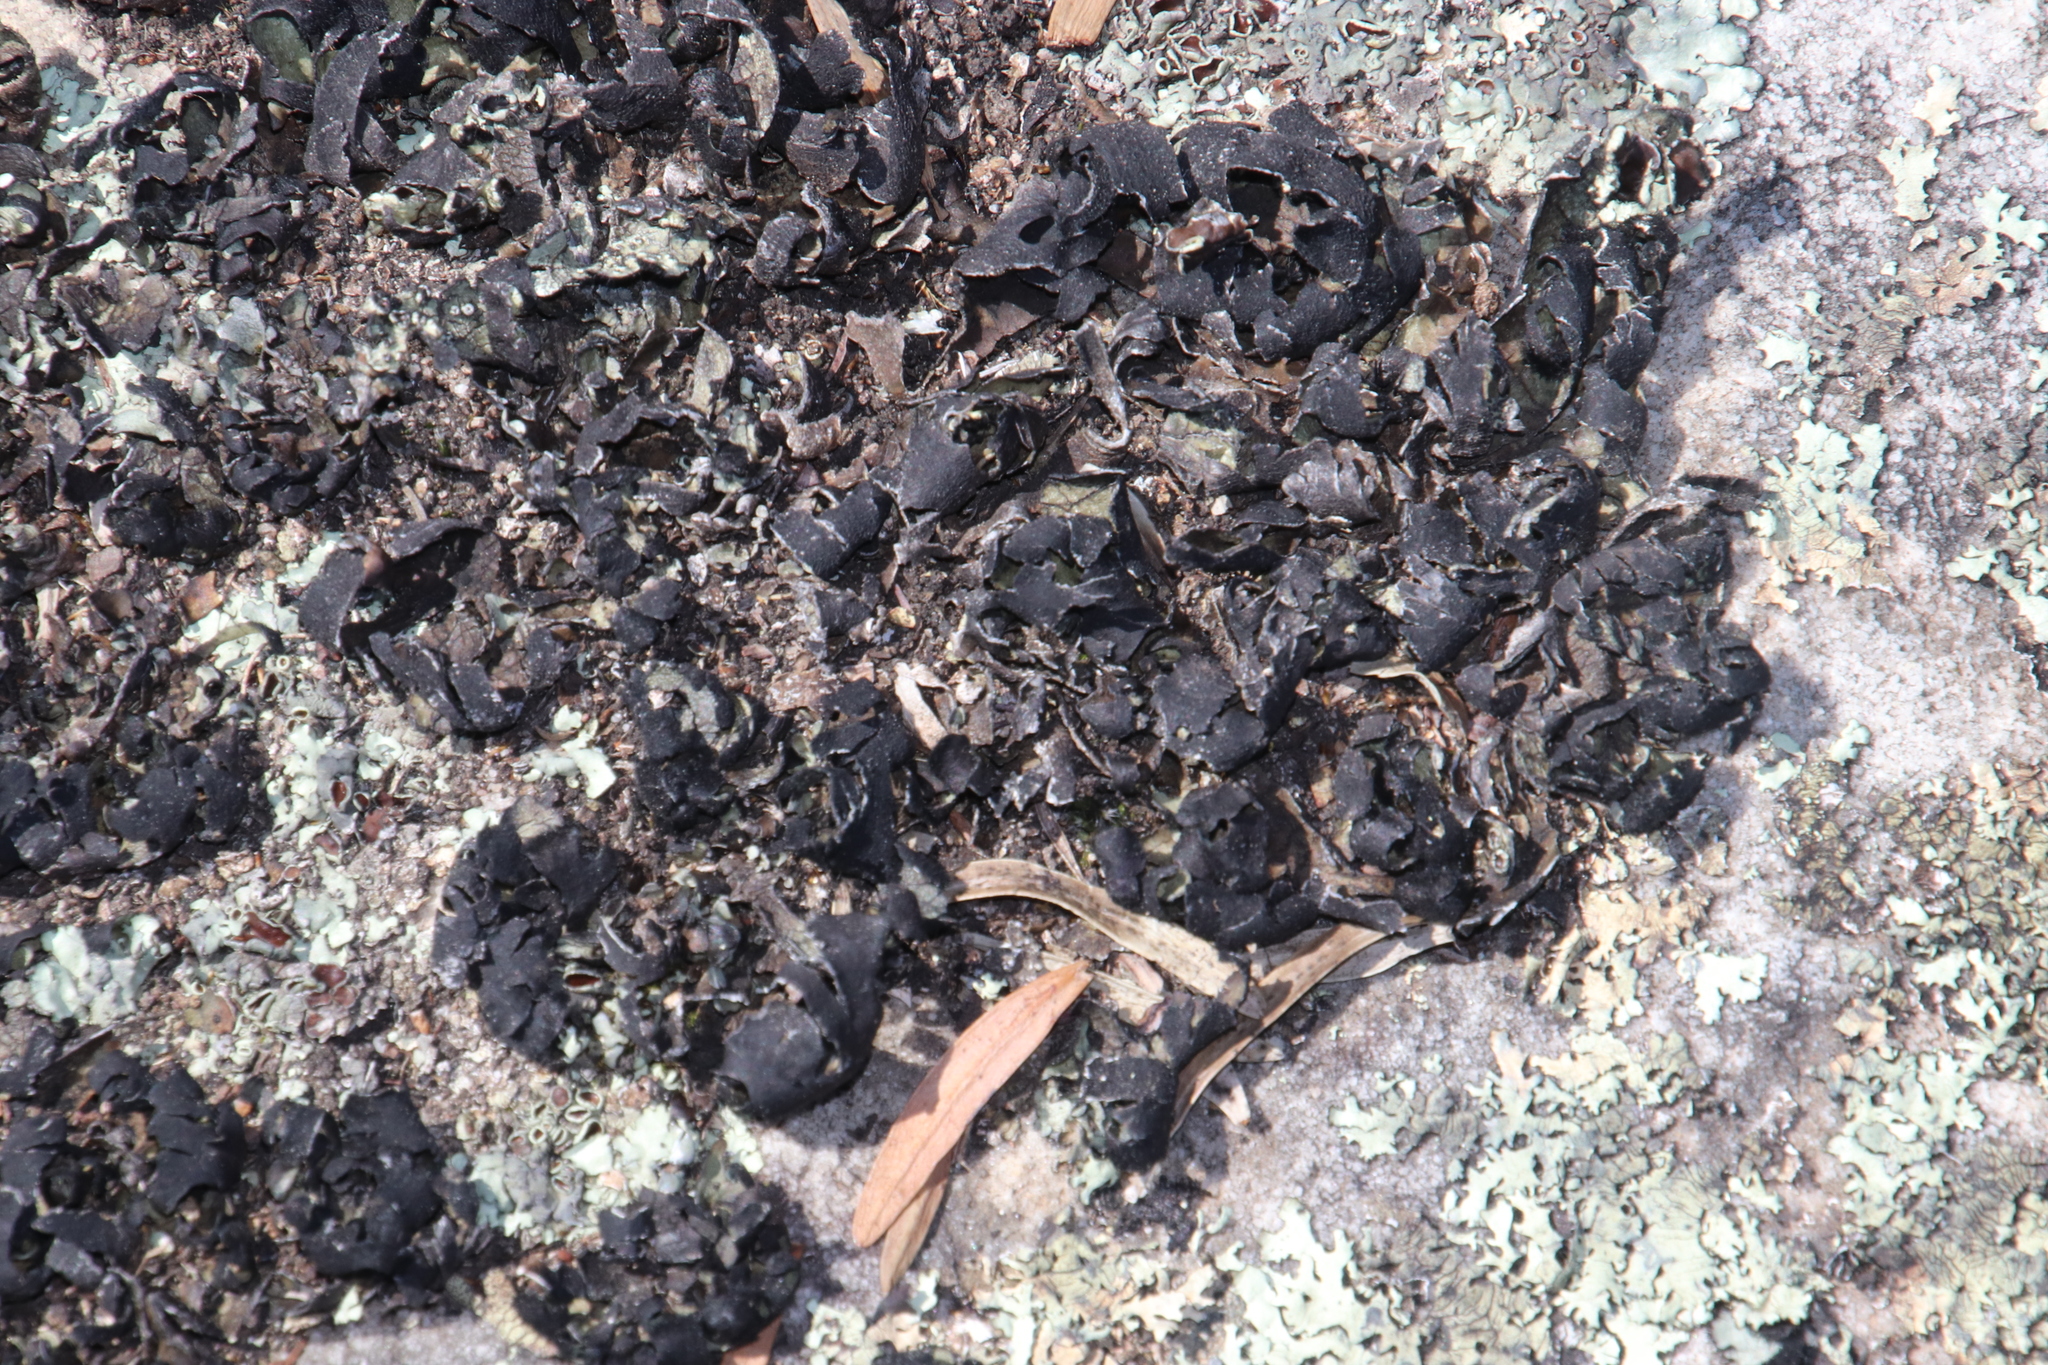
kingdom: Fungi
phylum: Ascomycota
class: Lecanoromycetes
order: Lecanorales
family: Parmeliaceae
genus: Xanthoparmelia
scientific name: Xanthoparmelia hottentotta
